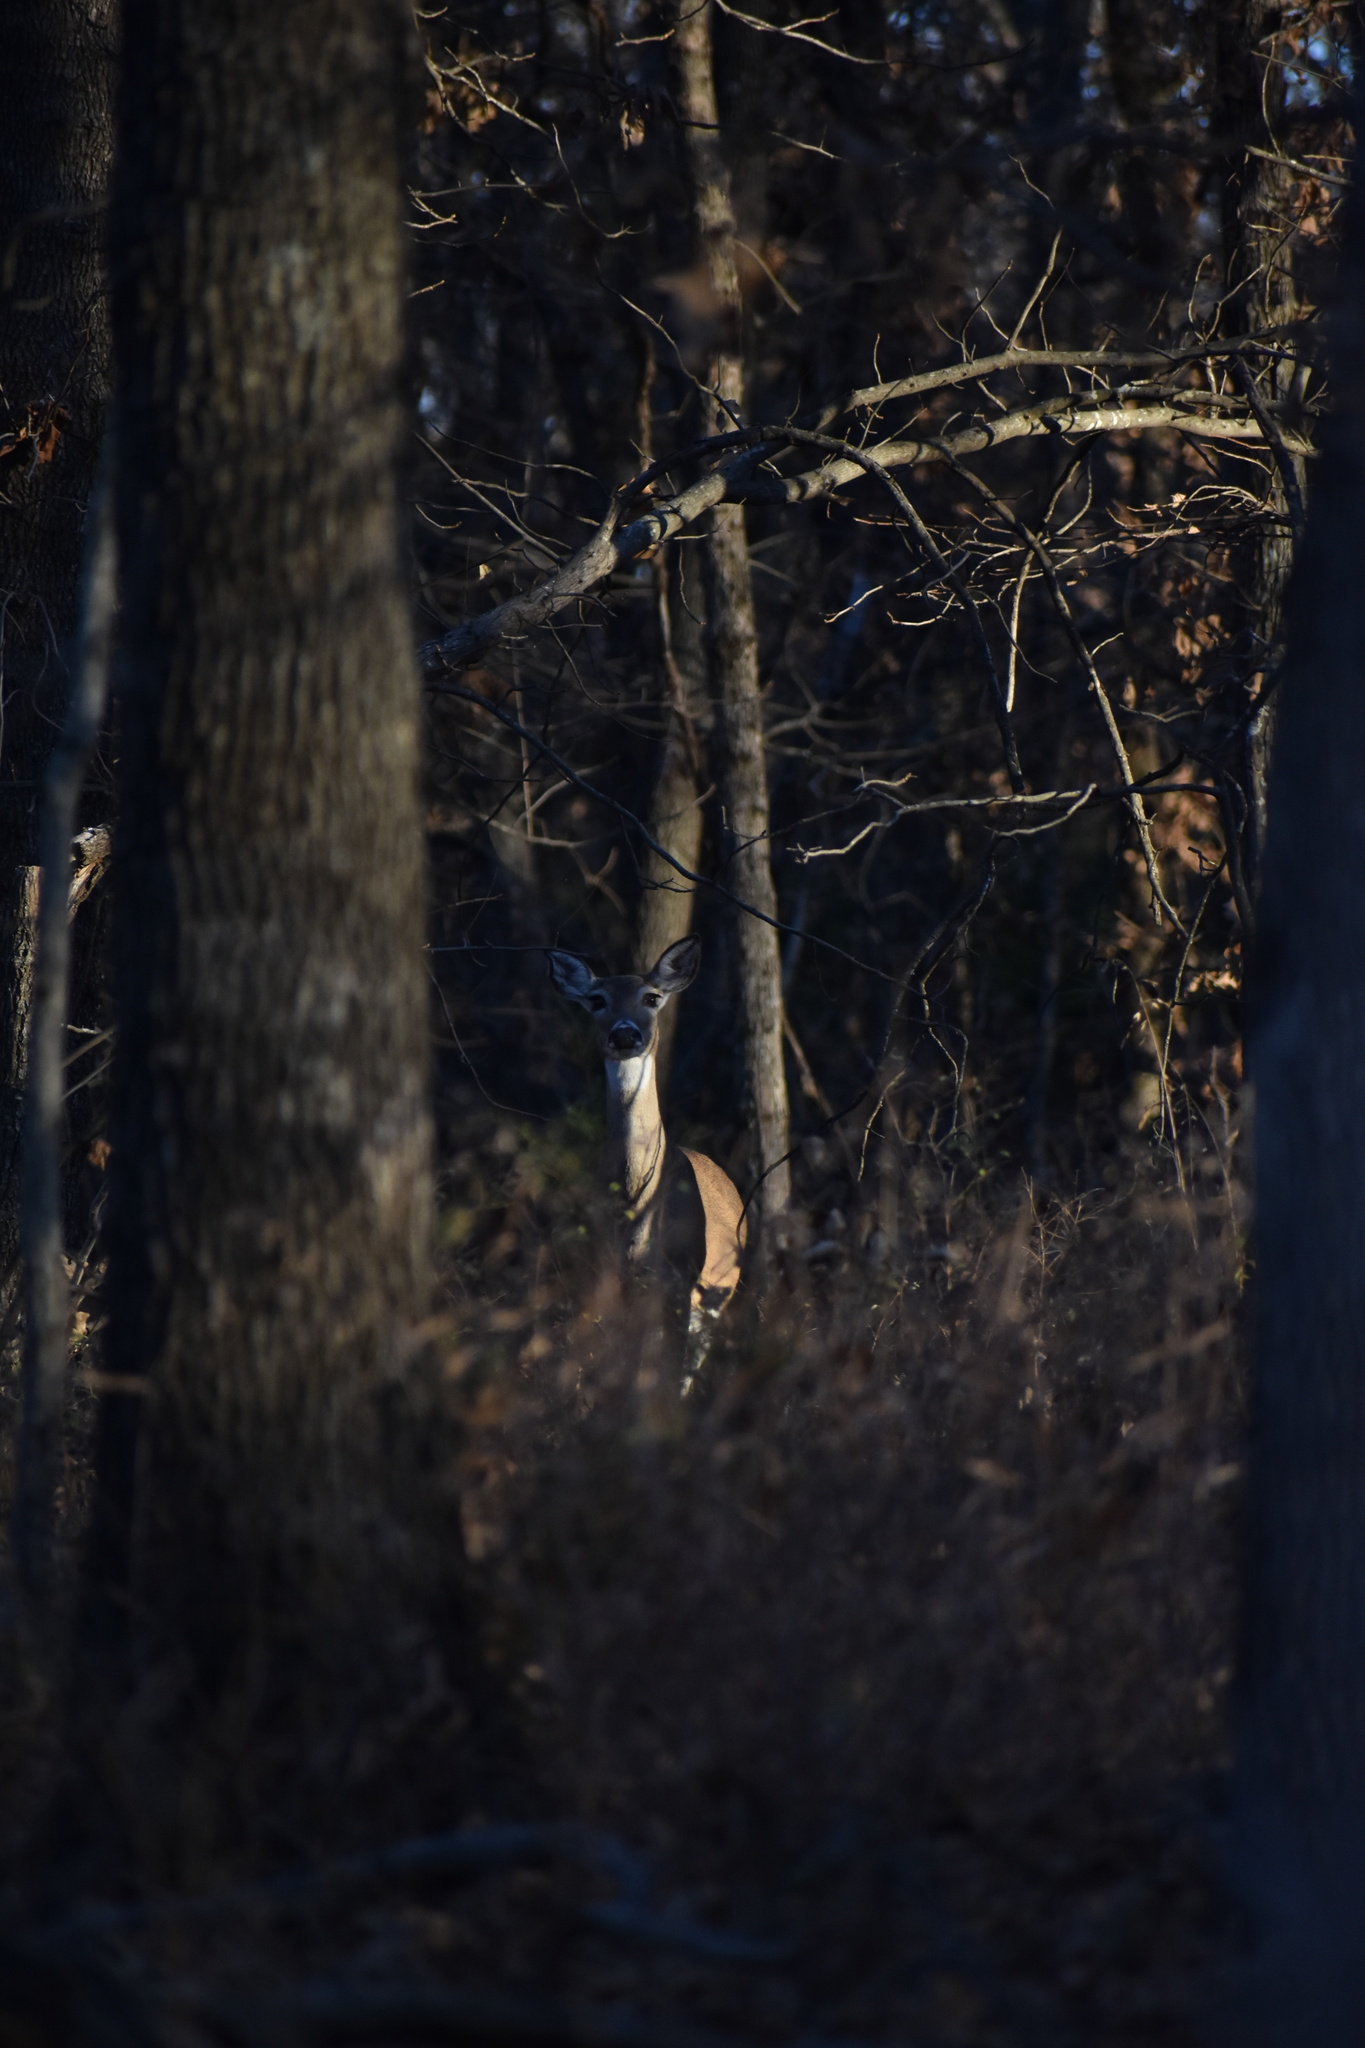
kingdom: Animalia
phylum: Chordata
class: Mammalia
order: Artiodactyla
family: Cervidae
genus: Odocoileus
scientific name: Odocoileus virginianus
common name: White-tailed deer
